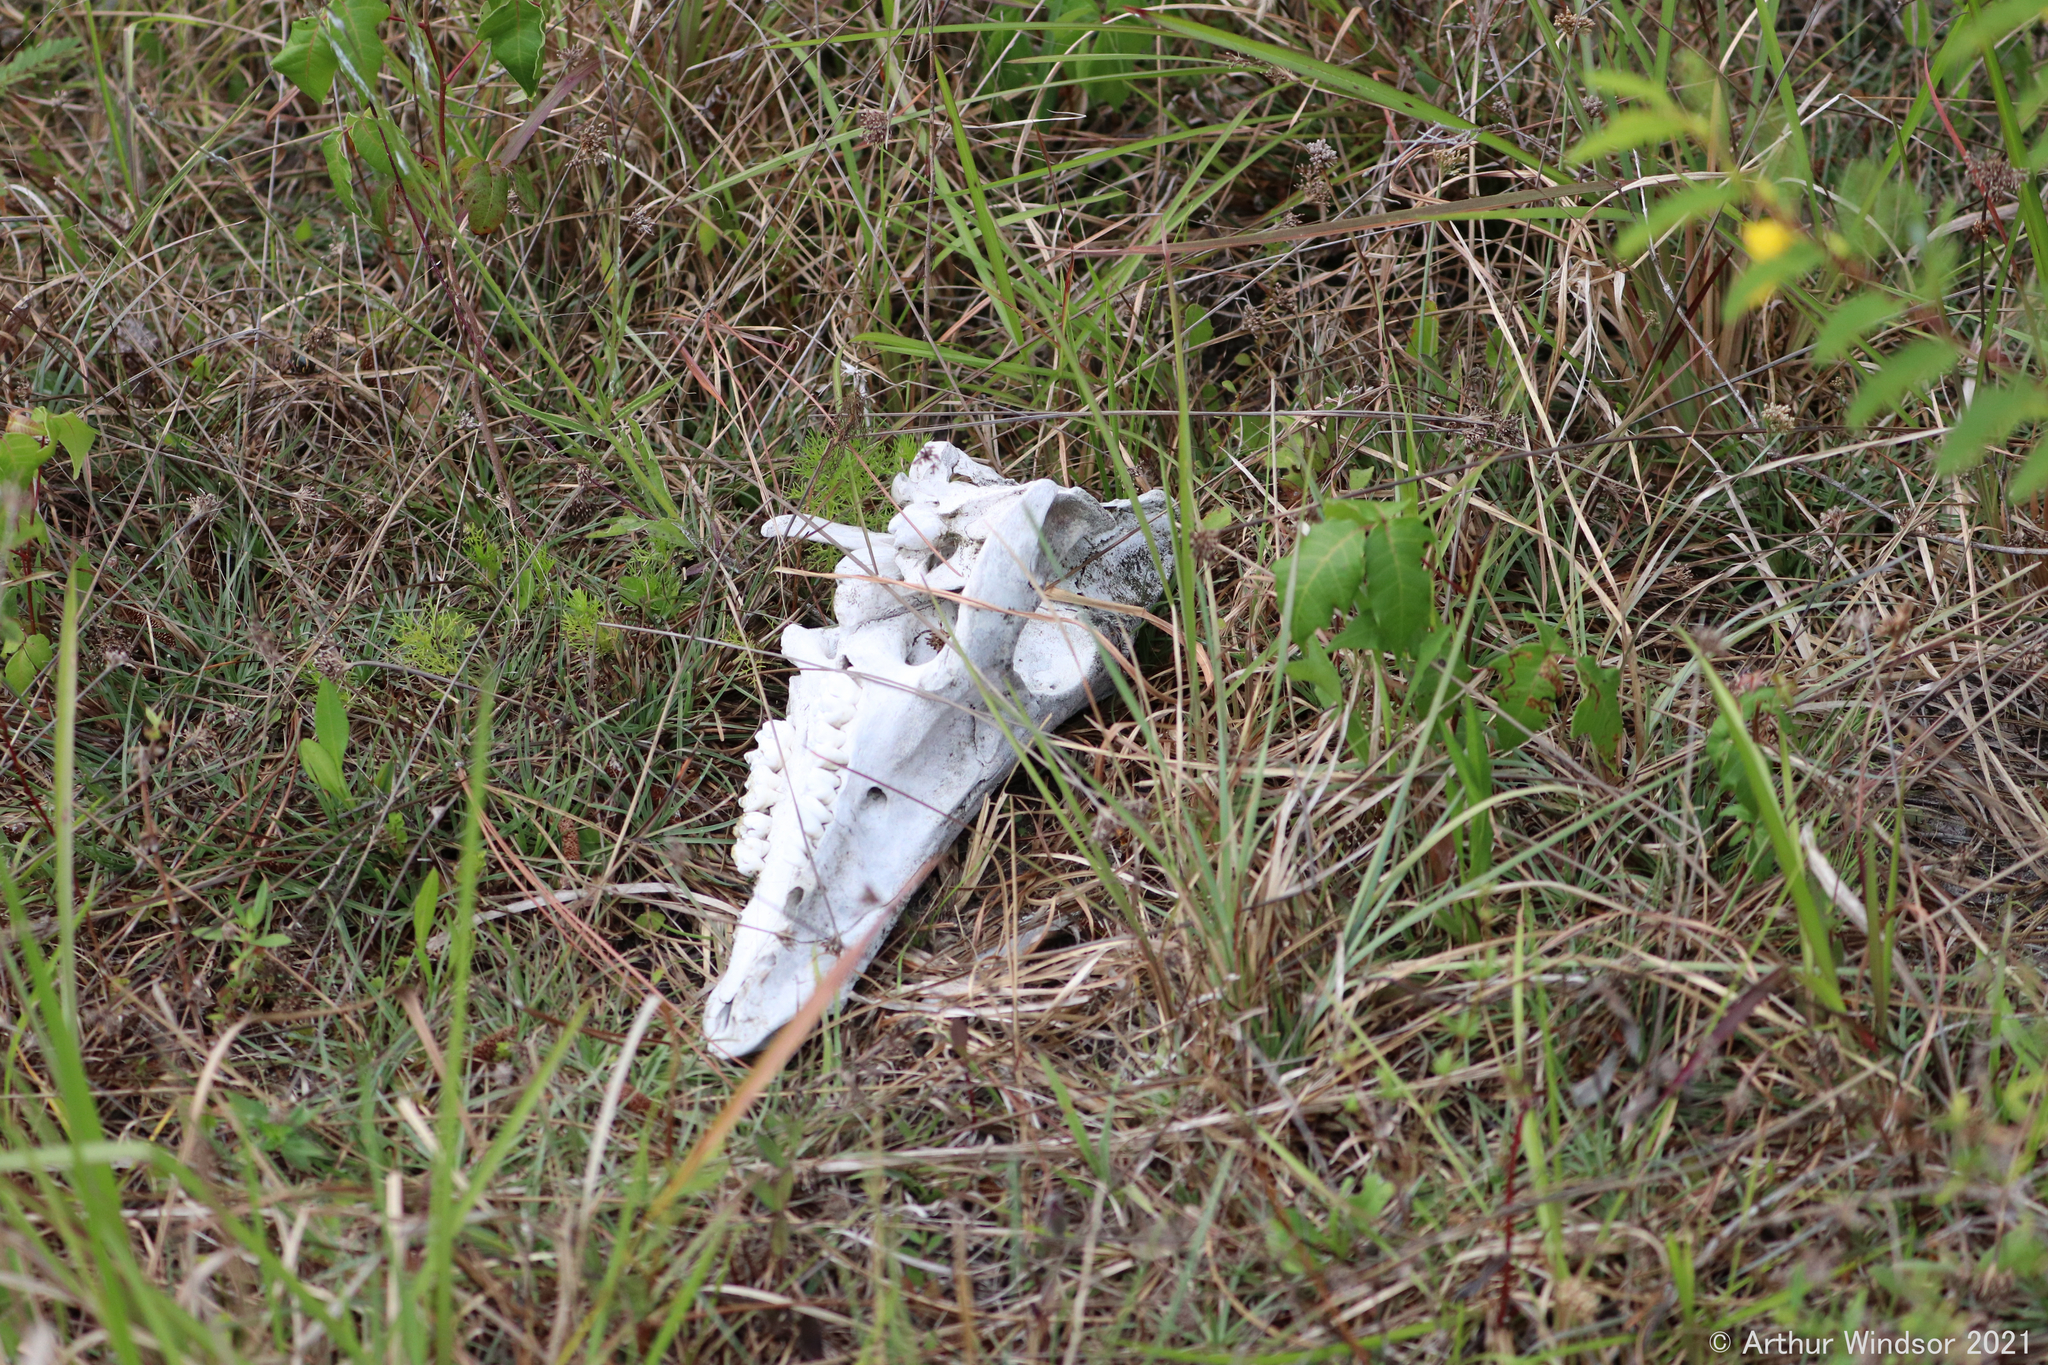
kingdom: Animalia
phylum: Chordata
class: Mammalia
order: Artiodactyla
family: Suidae
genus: Sus
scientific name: Sus scrofa
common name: Wild boar
